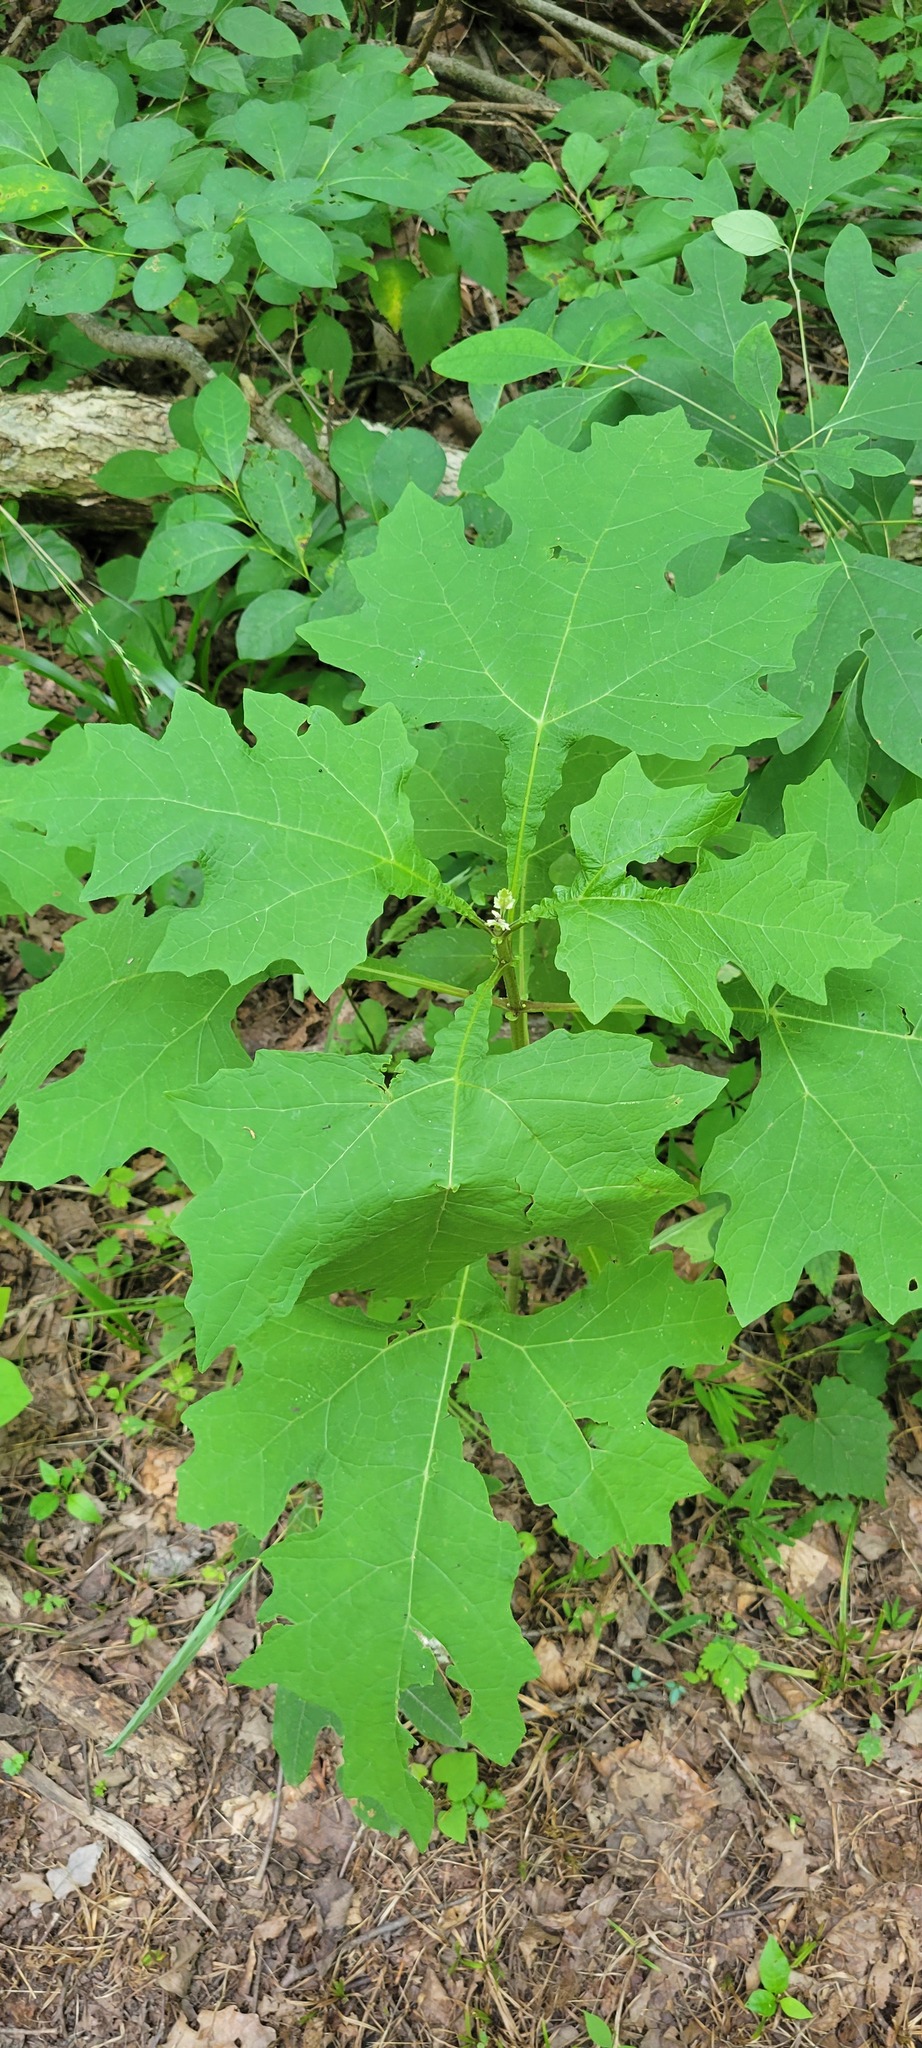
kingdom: Plantae
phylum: Tracheophyta
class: Magnoliopsida
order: Asterales
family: Asteraceae
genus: Smallanthus
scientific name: Smallanthus uvedalia
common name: Bear's-foot
